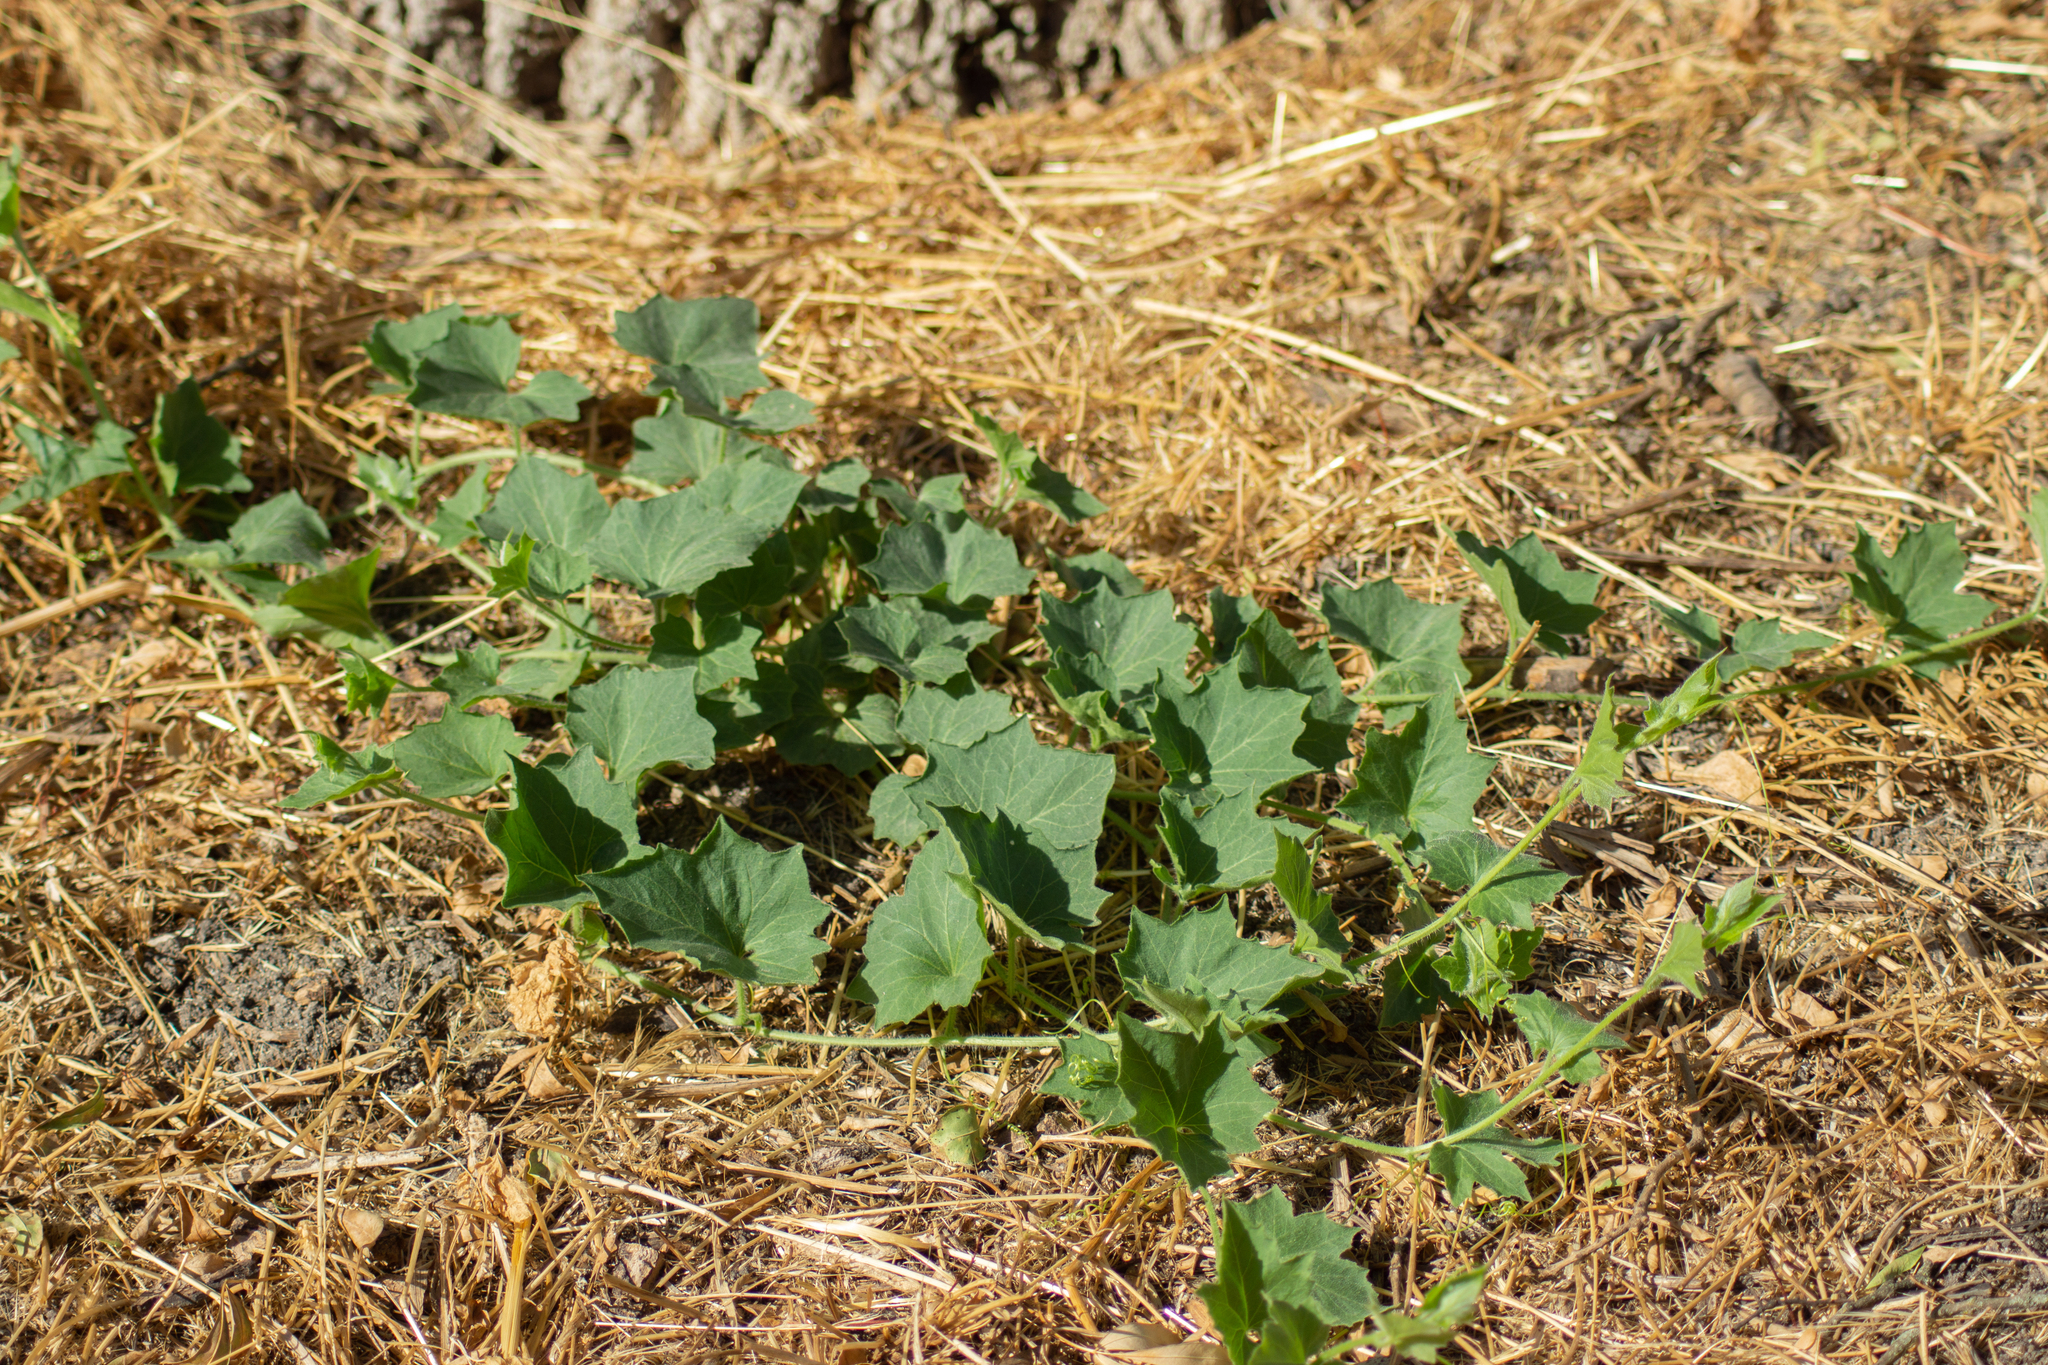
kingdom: Plantae
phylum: Tracheophyta
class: Magnoliopsida
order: Cucurbitales
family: Cucurbitaceae
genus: Bryonia
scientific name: Bryonia cretica
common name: Cretan bryony
